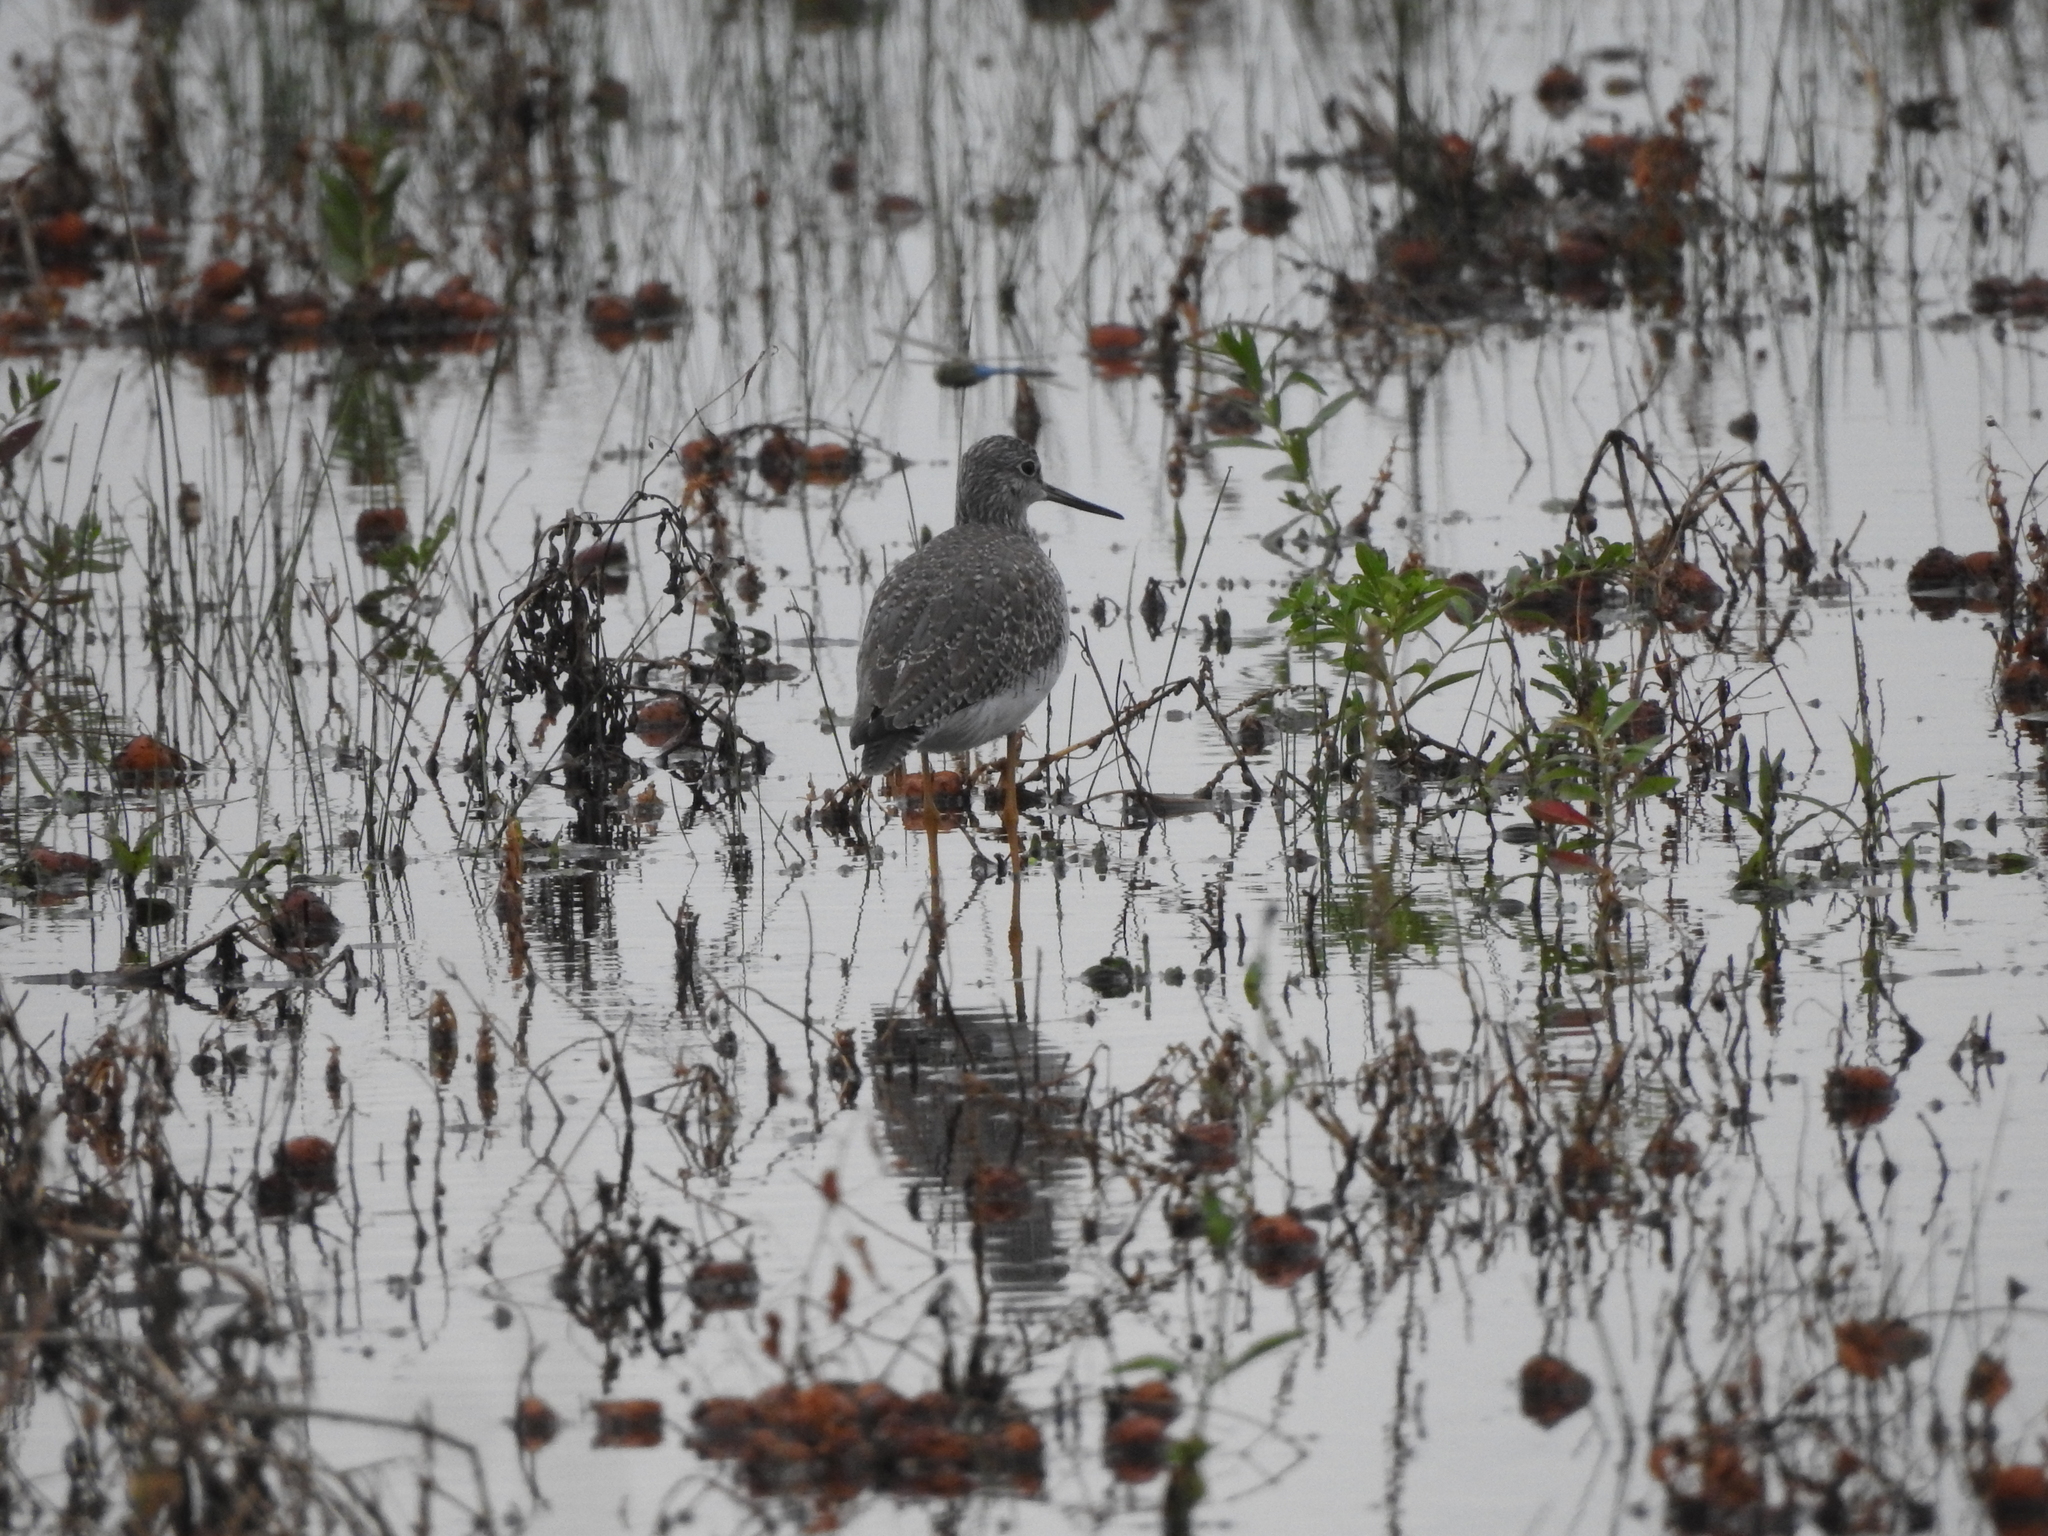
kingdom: Animalia
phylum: Chordata
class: Aves
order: Charadriiformes
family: Scolopacidae
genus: Tringa
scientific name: Tringa melanoleuca
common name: Greater yellowlegs
